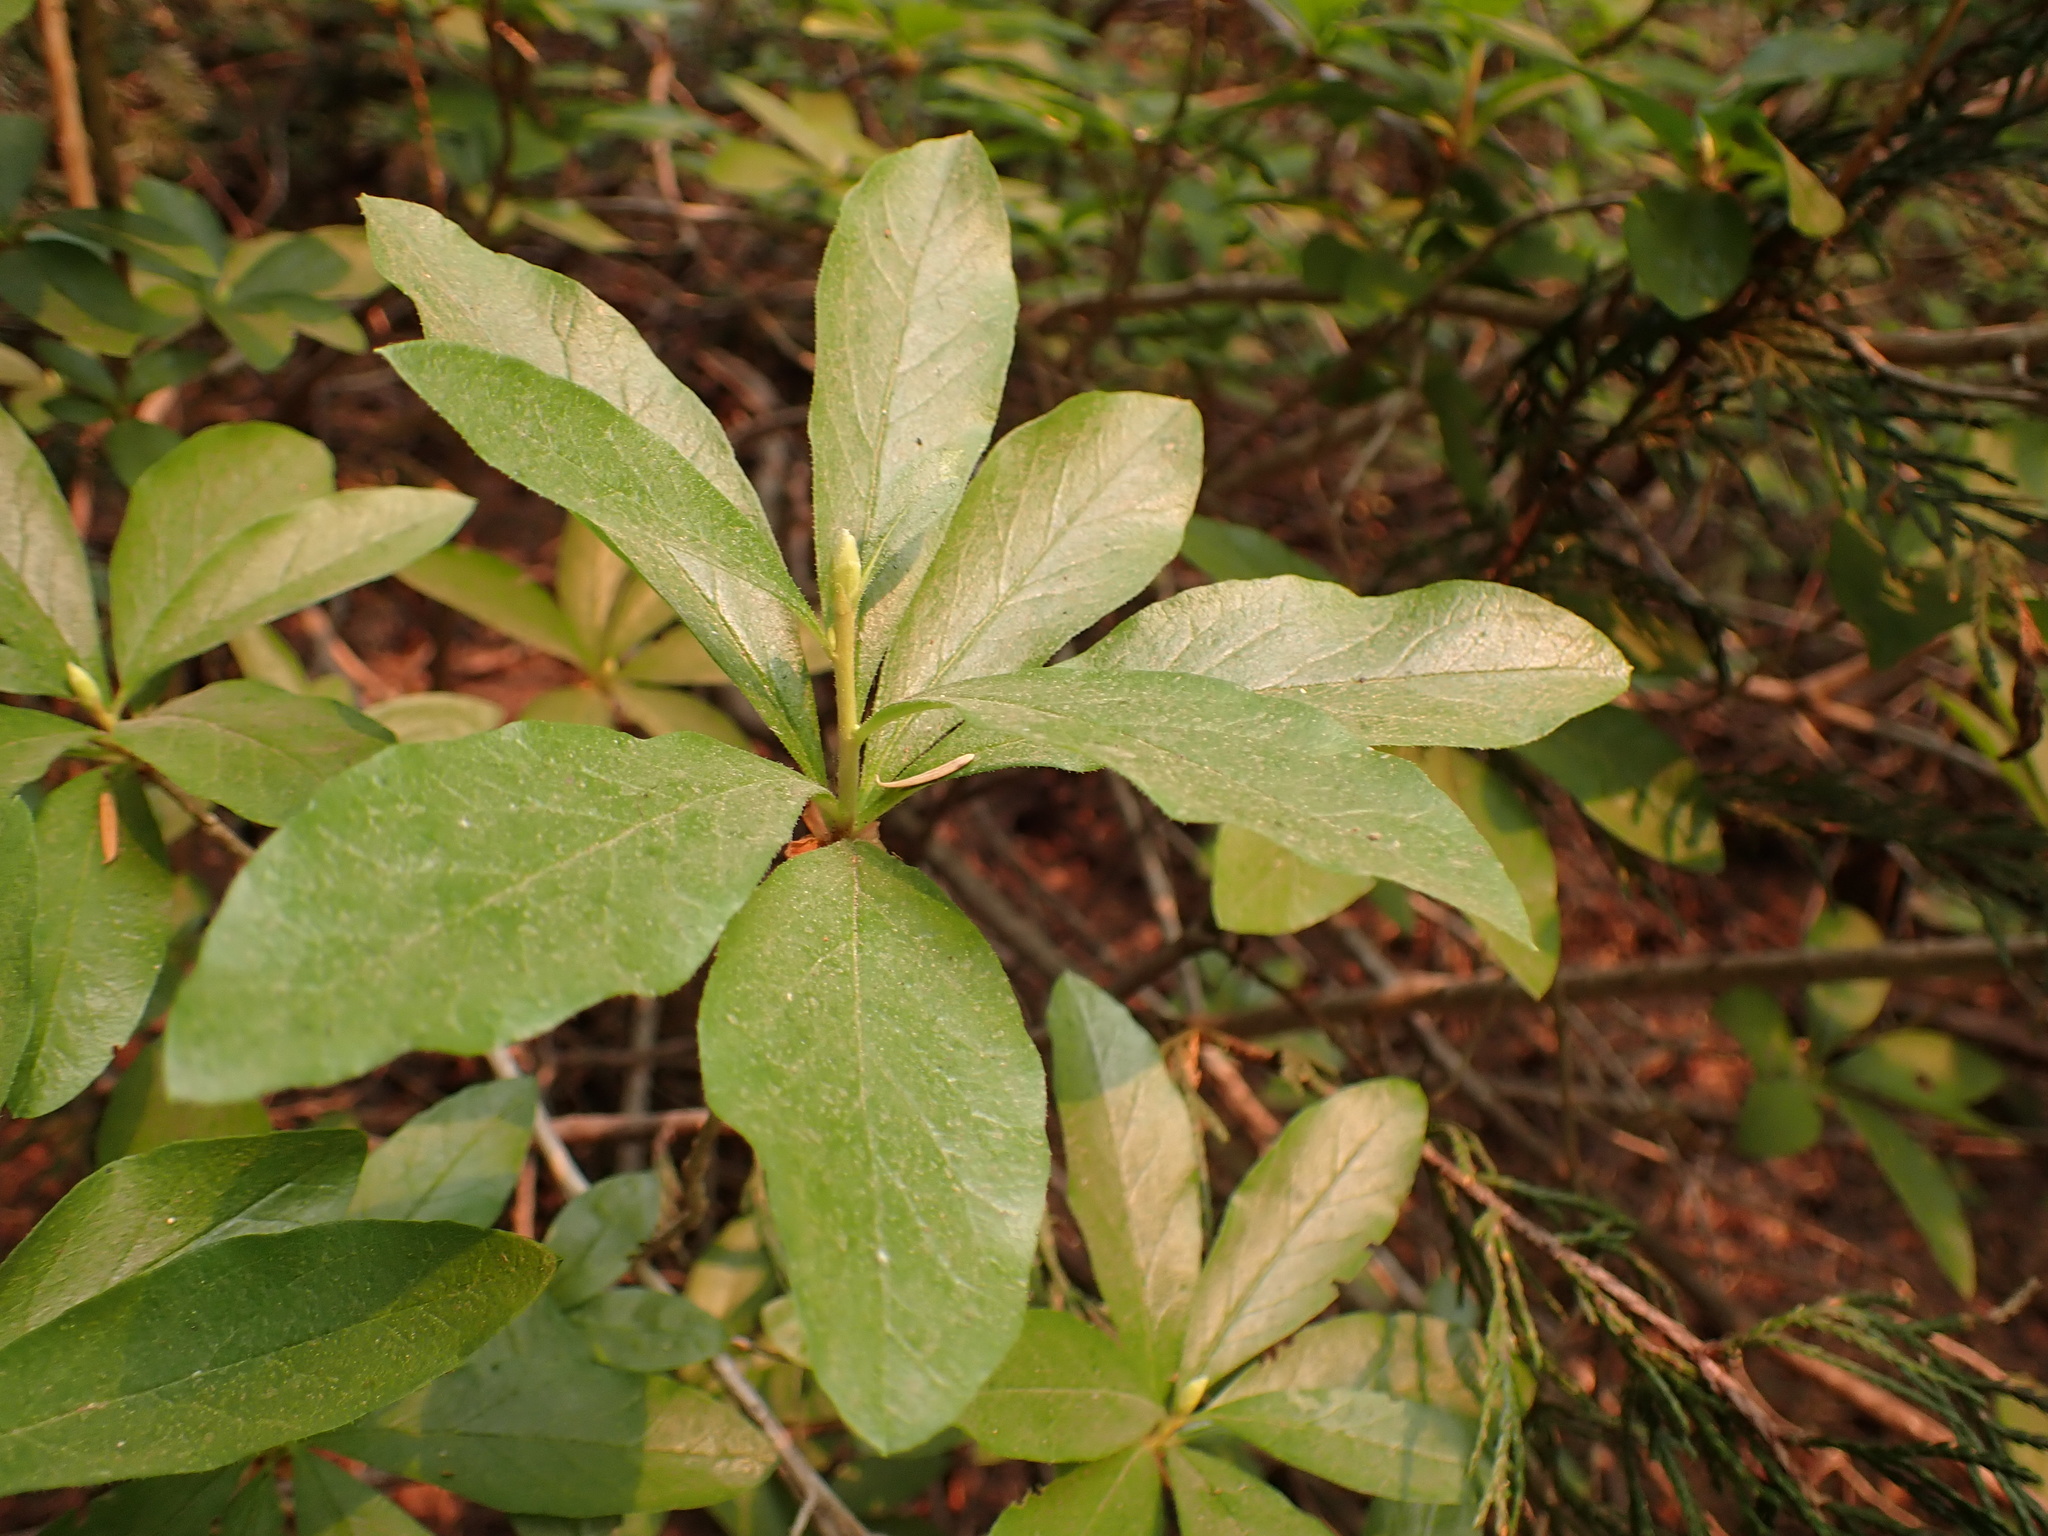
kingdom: Plantae
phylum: Tracheophyta
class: Magnoliopsida
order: Ericales
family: Ericaceae
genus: Rhododendron
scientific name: Rhododendron albiflorum
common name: White rhododendron
